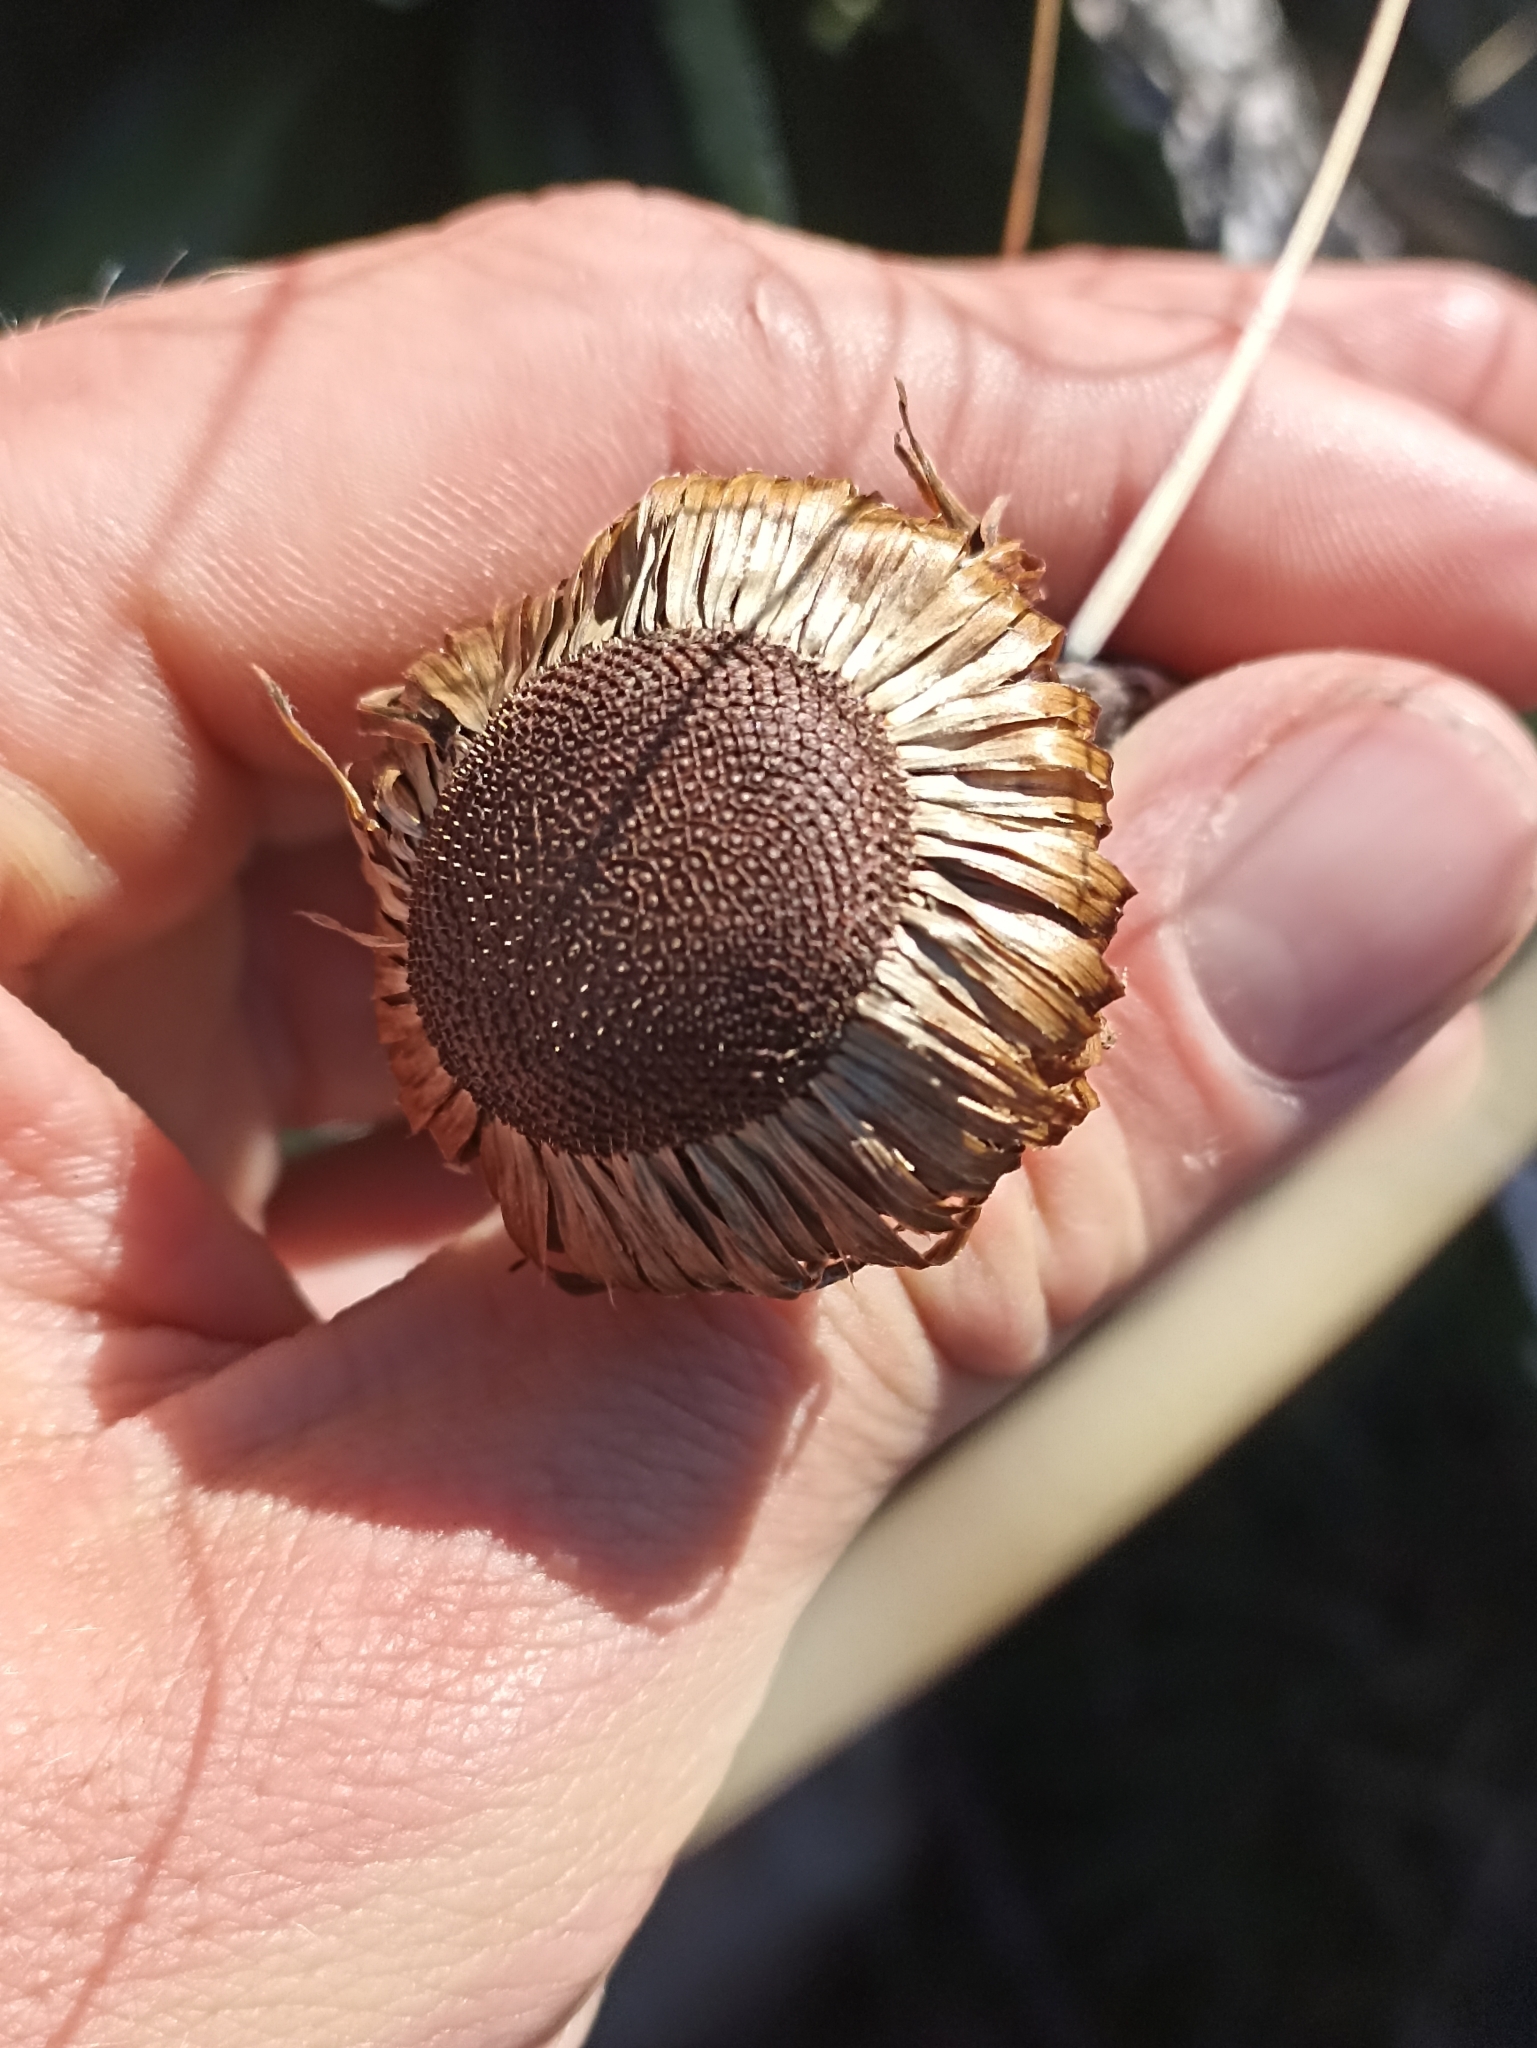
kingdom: Plantae
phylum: Tracheophyta
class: Magnoliopsida
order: Asterales
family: Asteraceae
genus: Celmisia
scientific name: Celmisia semicordata
